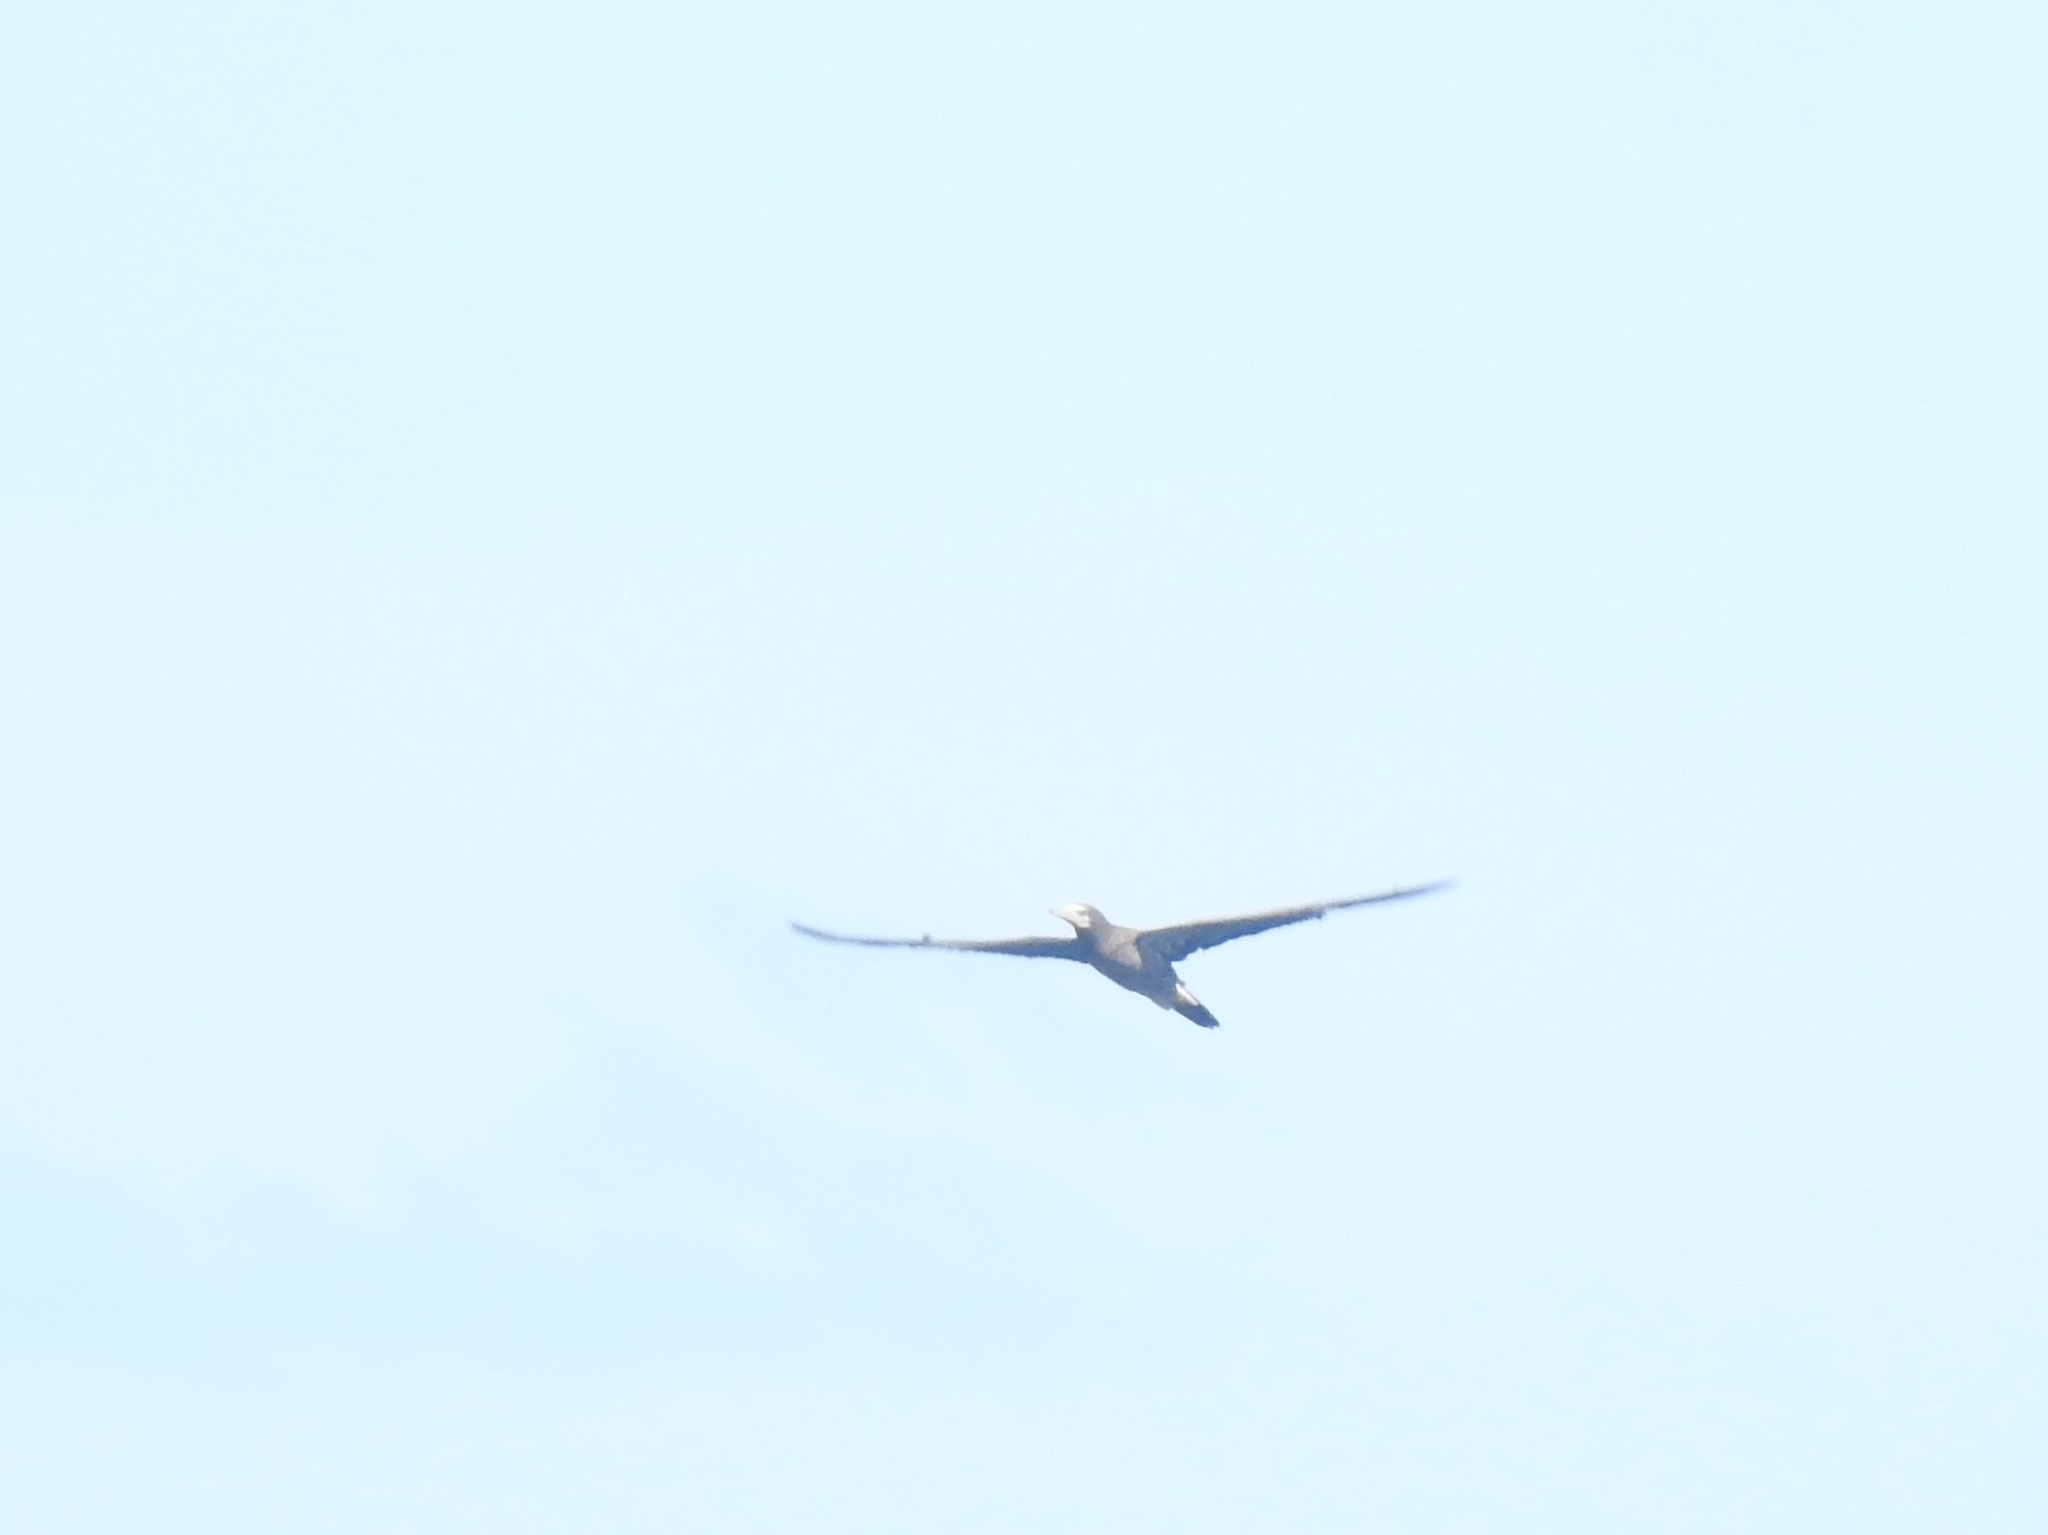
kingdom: Animalia
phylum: Chordata
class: Aves
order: Suliformes
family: Sulidae
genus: Sula
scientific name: Sula leucogaster
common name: Brown booby
